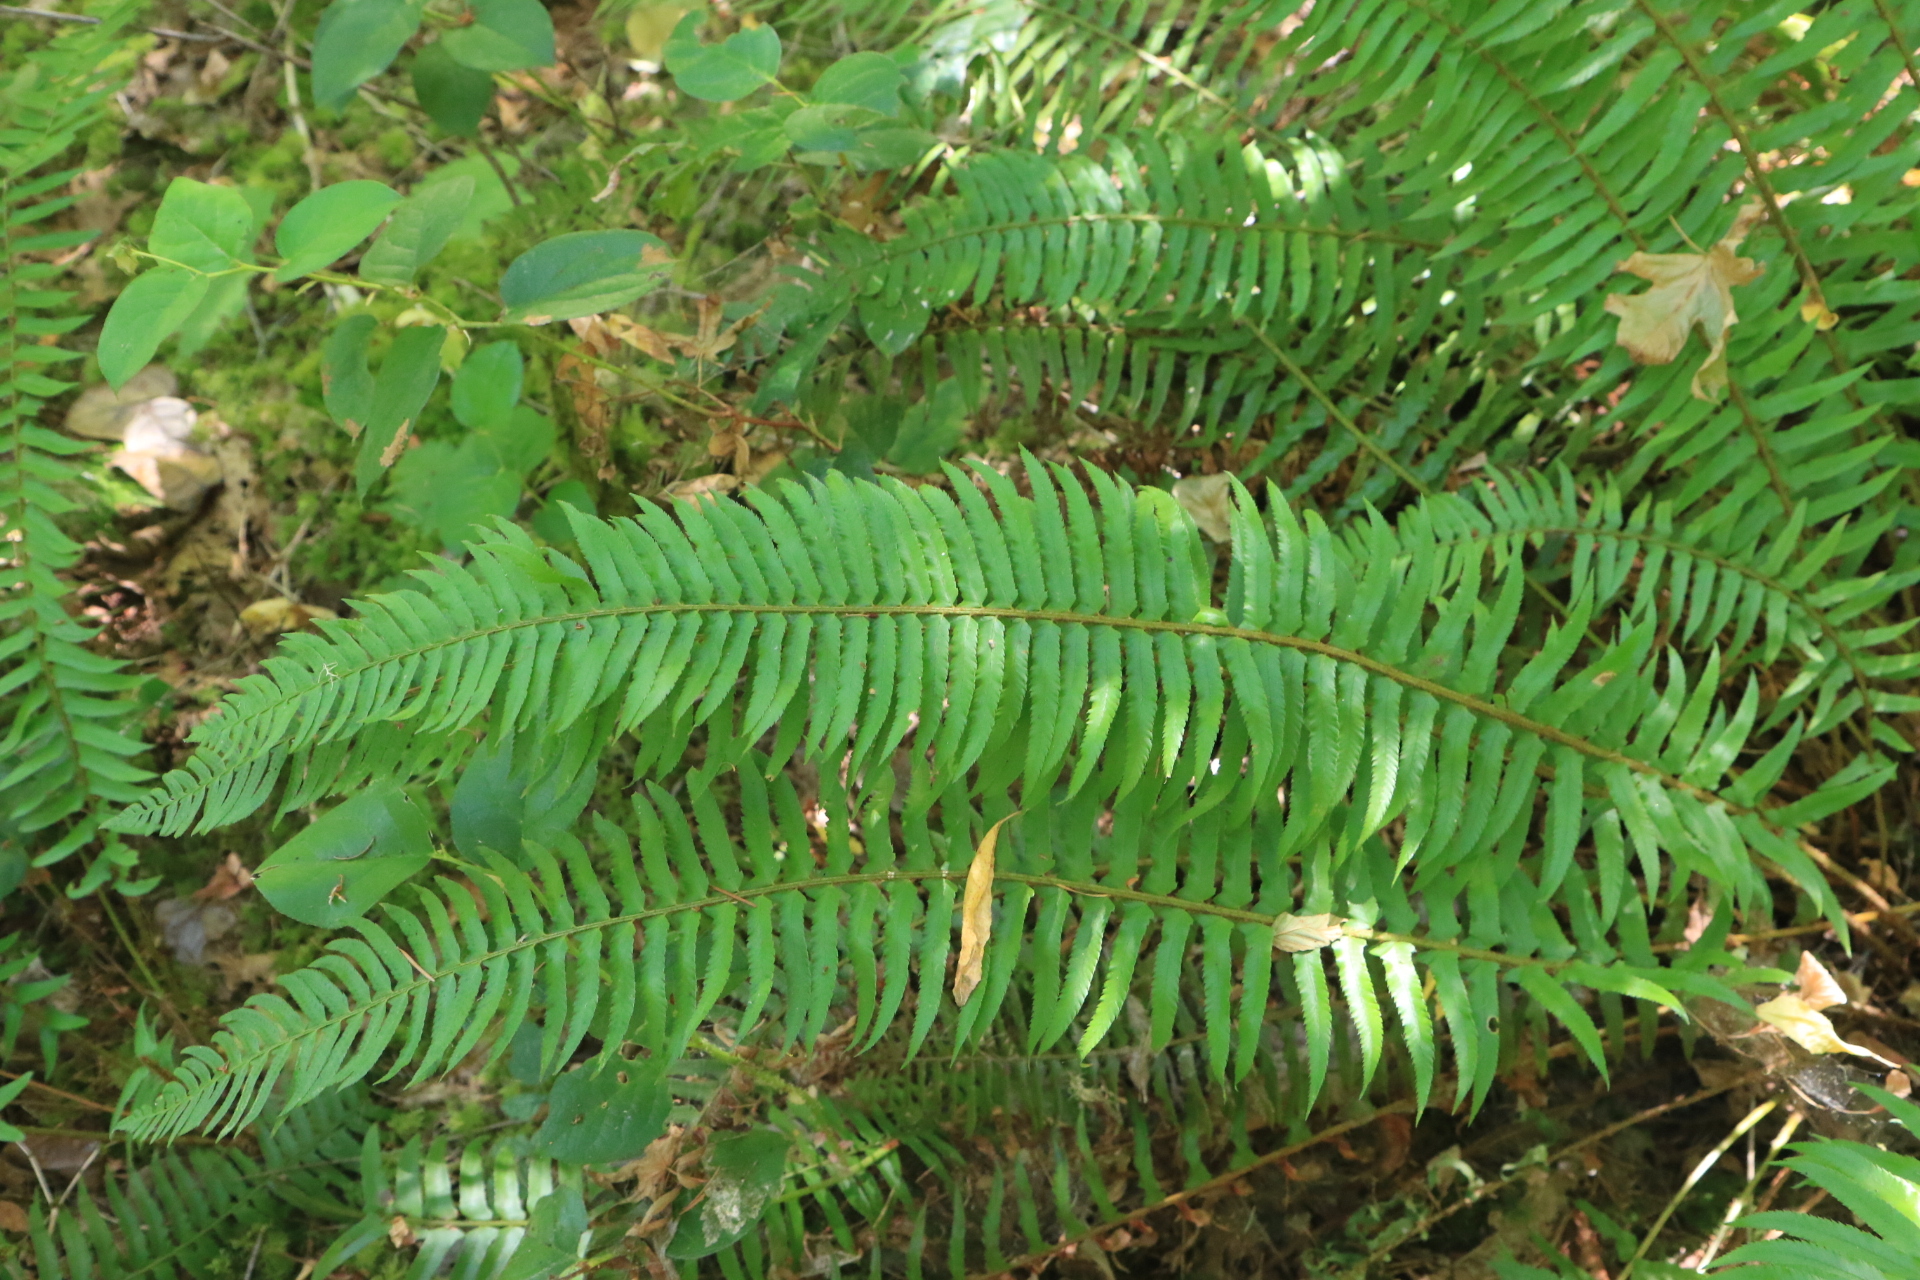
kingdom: Plantae
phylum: Tracheophyta
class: Polypodiopsida
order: Polypodiales
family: Dryopteridaceae
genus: Polystichum
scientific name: Polystichum munitum
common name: Western sword-fern
